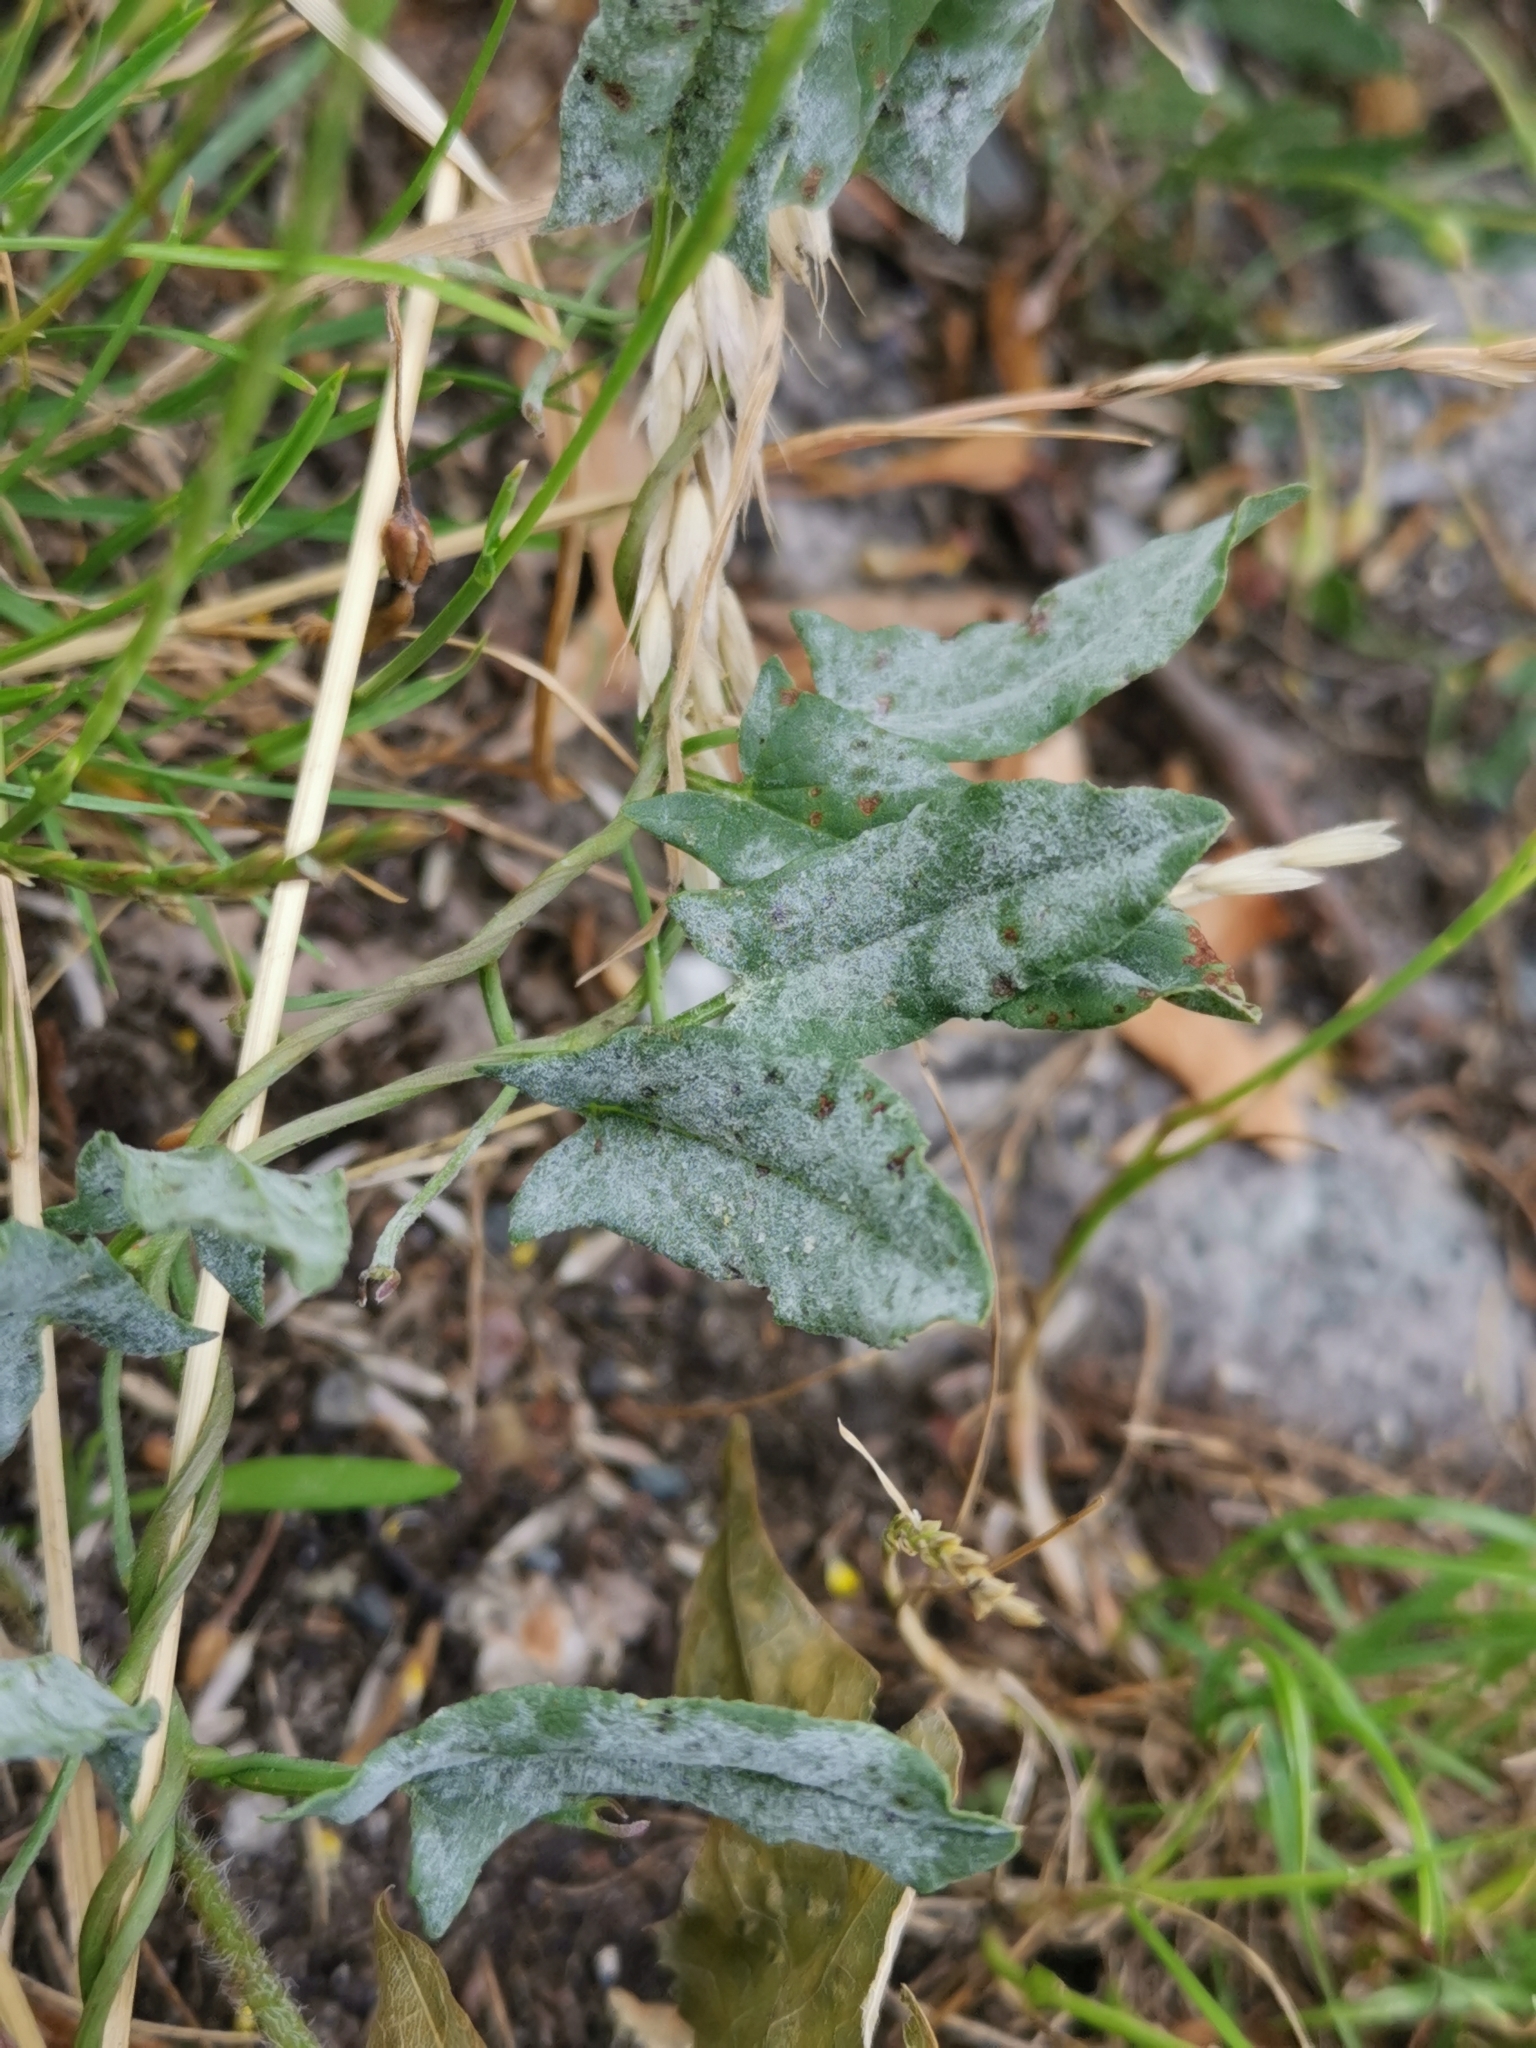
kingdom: Fungi
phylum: Ascomycota
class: Leotiomycetes
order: Helotiales
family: Erysiphaceae
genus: Erysiphe
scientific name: Erysiphe convolvuli
